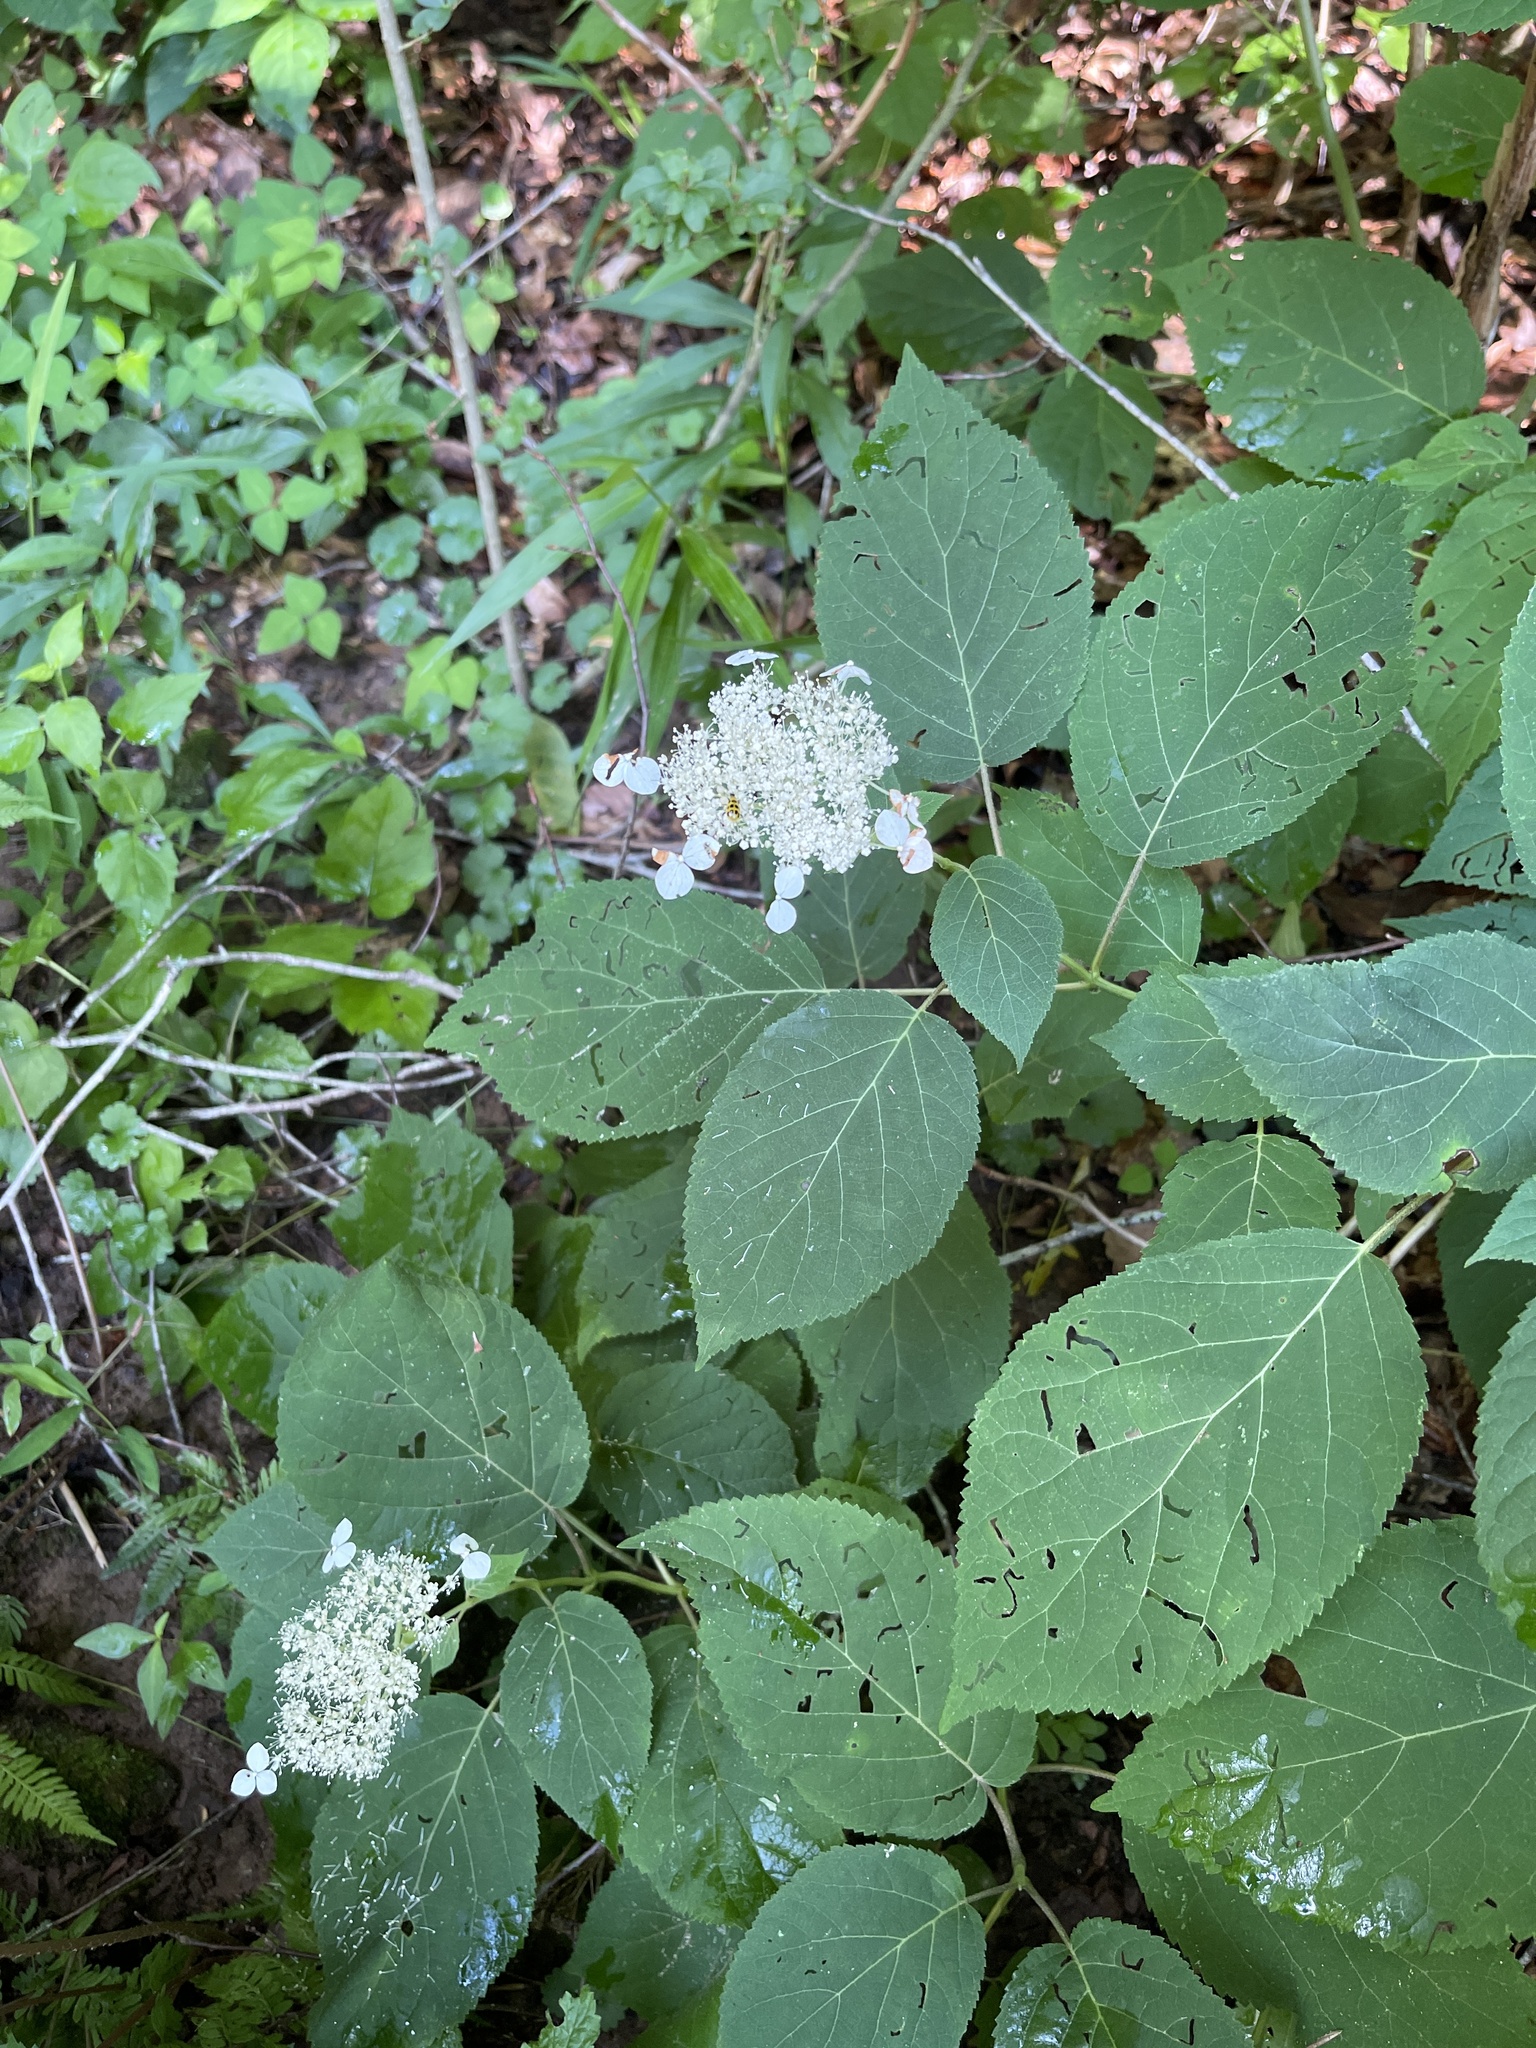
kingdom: Plantae
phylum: Tracheophyta
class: Magnoliopsida
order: Cornales
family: Hydrangeaceae
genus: Hydrangea
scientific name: Hydrangea arborescens
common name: Sevenbark
